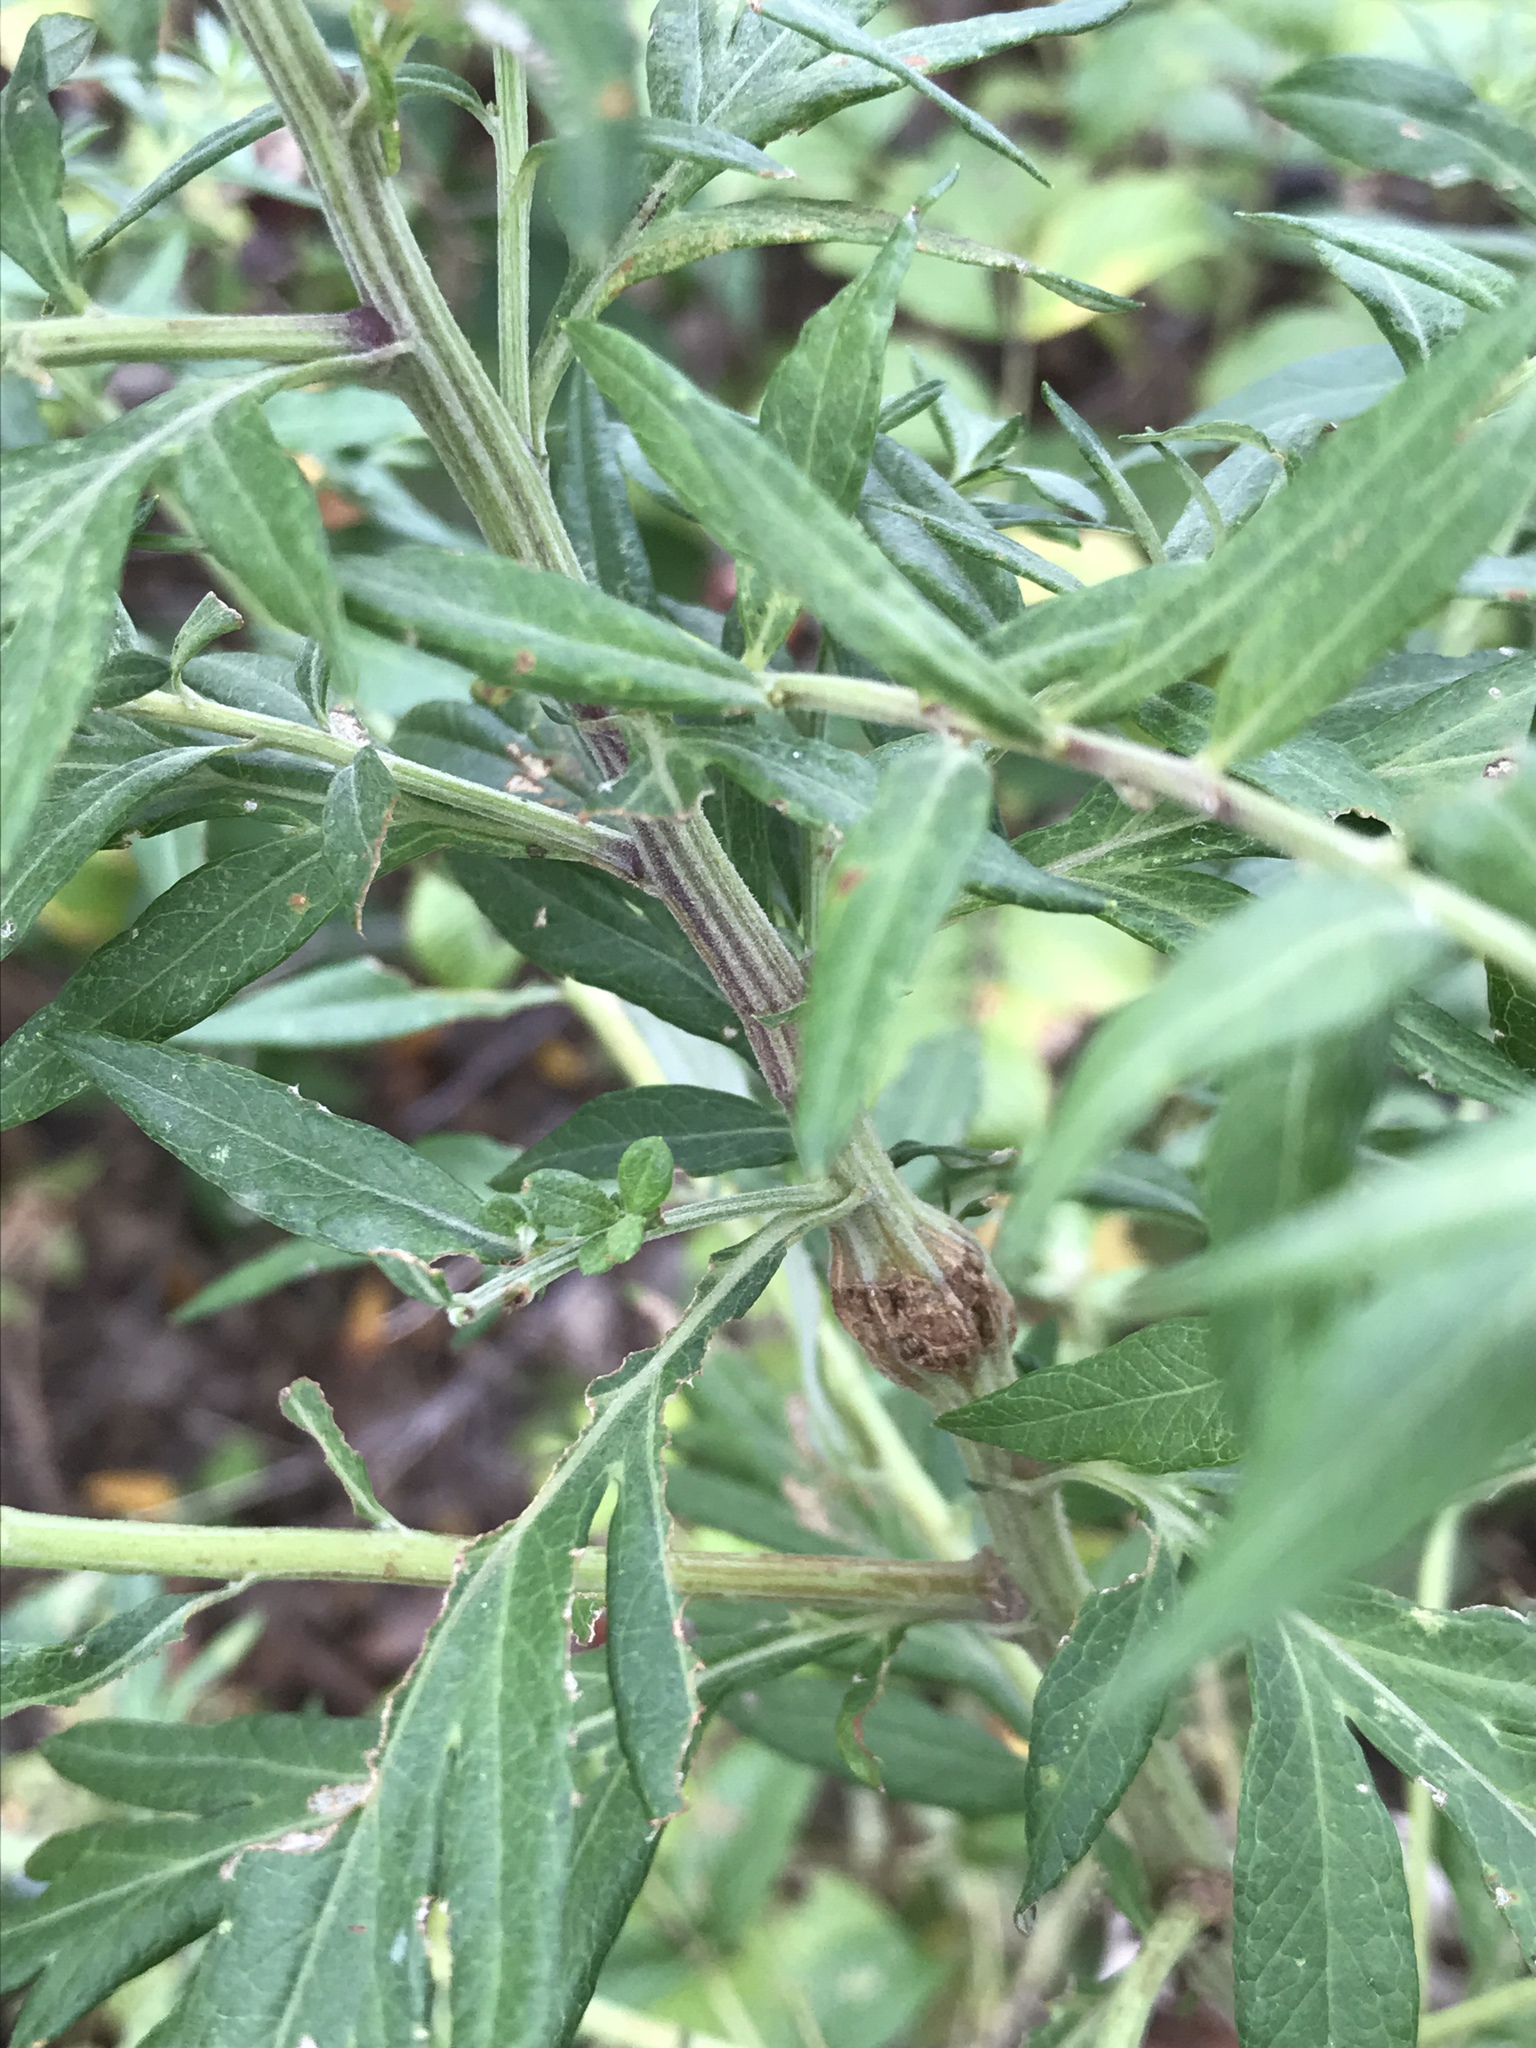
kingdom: Plantae
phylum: Tracheophyta
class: Magnoliopsida
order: Asterales
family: Asteraceae
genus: Artemisia
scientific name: Artemisia vulgaris
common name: Mugwort
